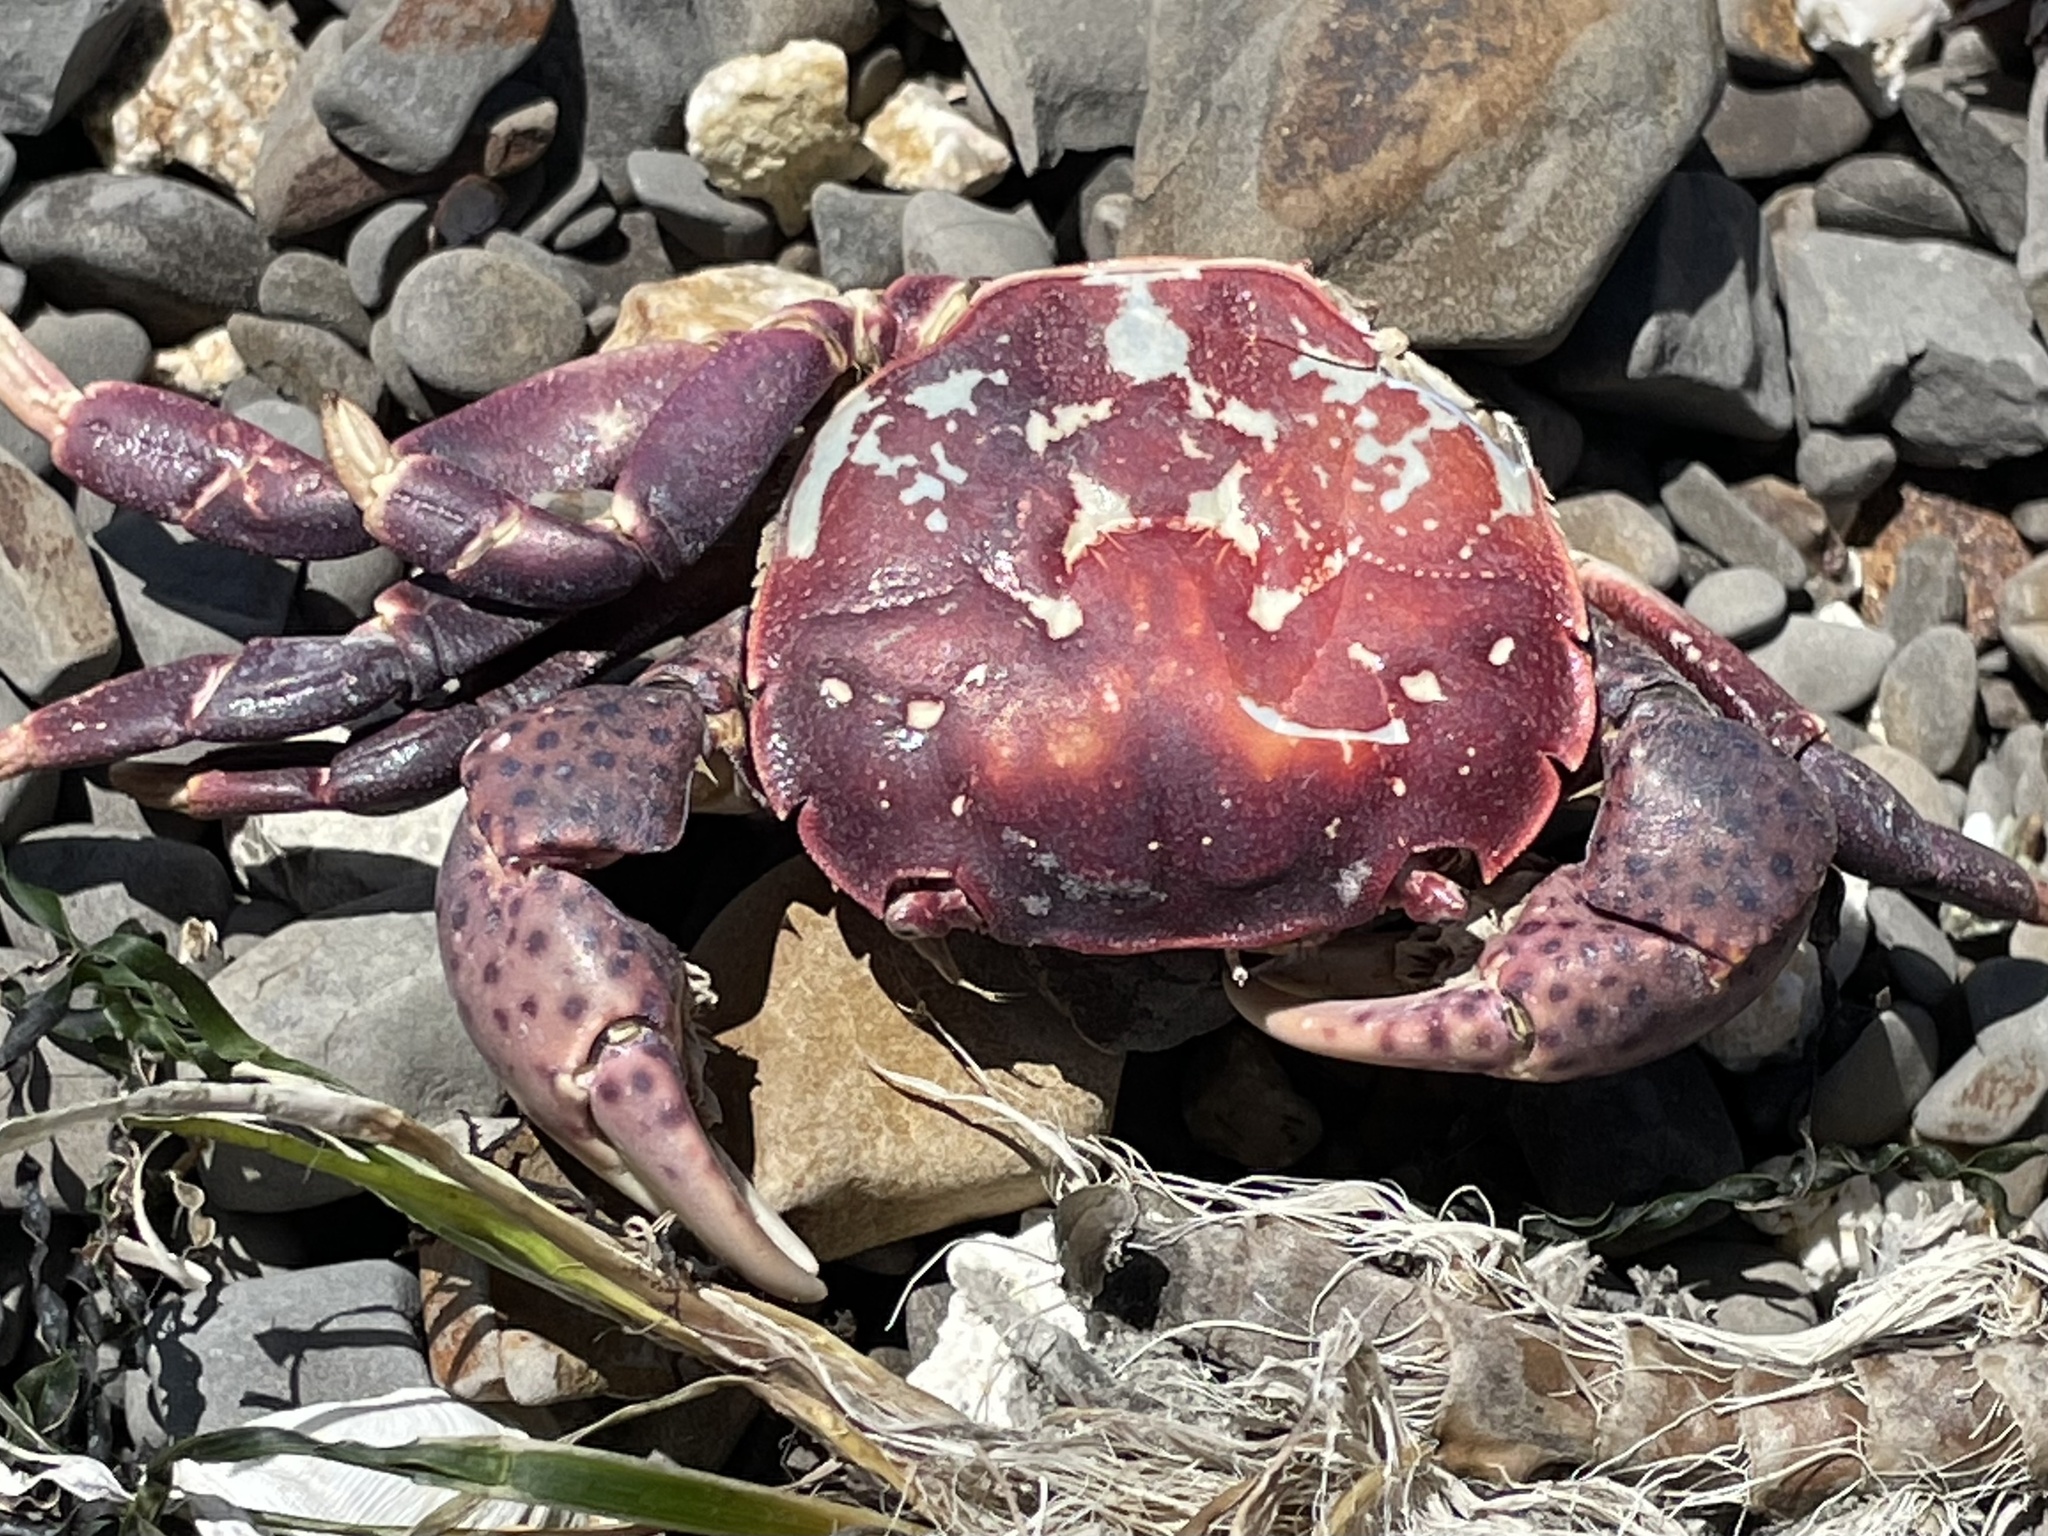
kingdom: Animalia
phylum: Arthropoda
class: Malacostraca
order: Decapoda
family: Varunidae
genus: Hemigrapsus
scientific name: Hemigrapsus nudus
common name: Purple shore crab
